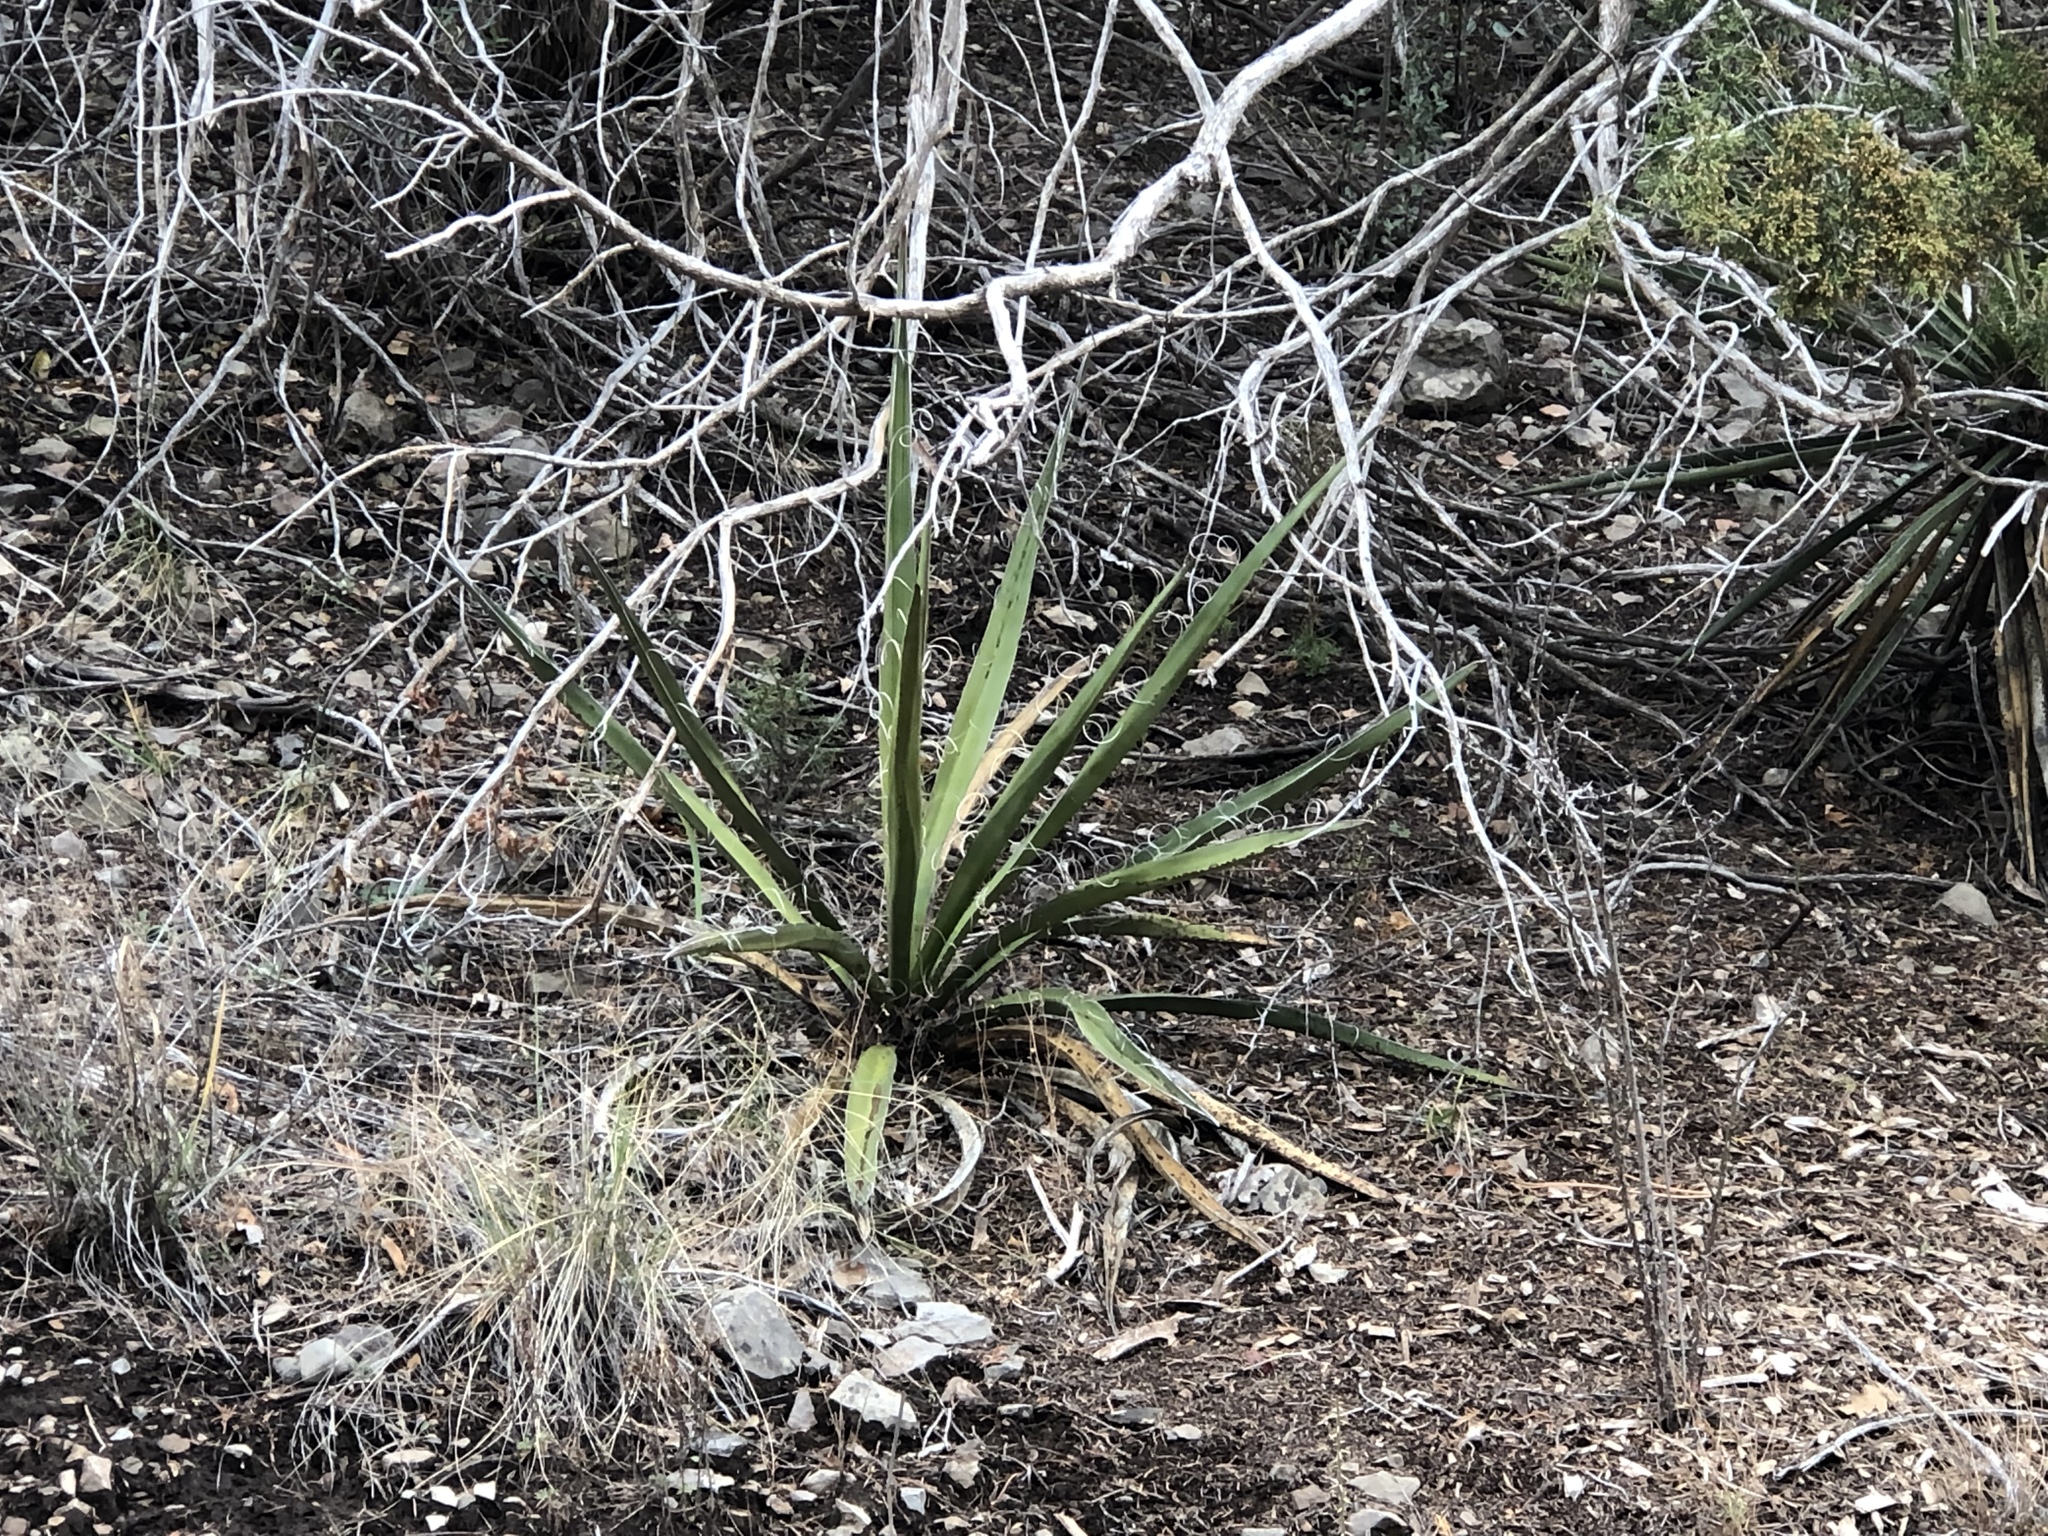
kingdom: Plantae
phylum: Tracheophyta
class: Liliopsida
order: Asparagales
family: Asparagaceae
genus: Yucca
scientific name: Yucca baccata
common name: Banana yucca
